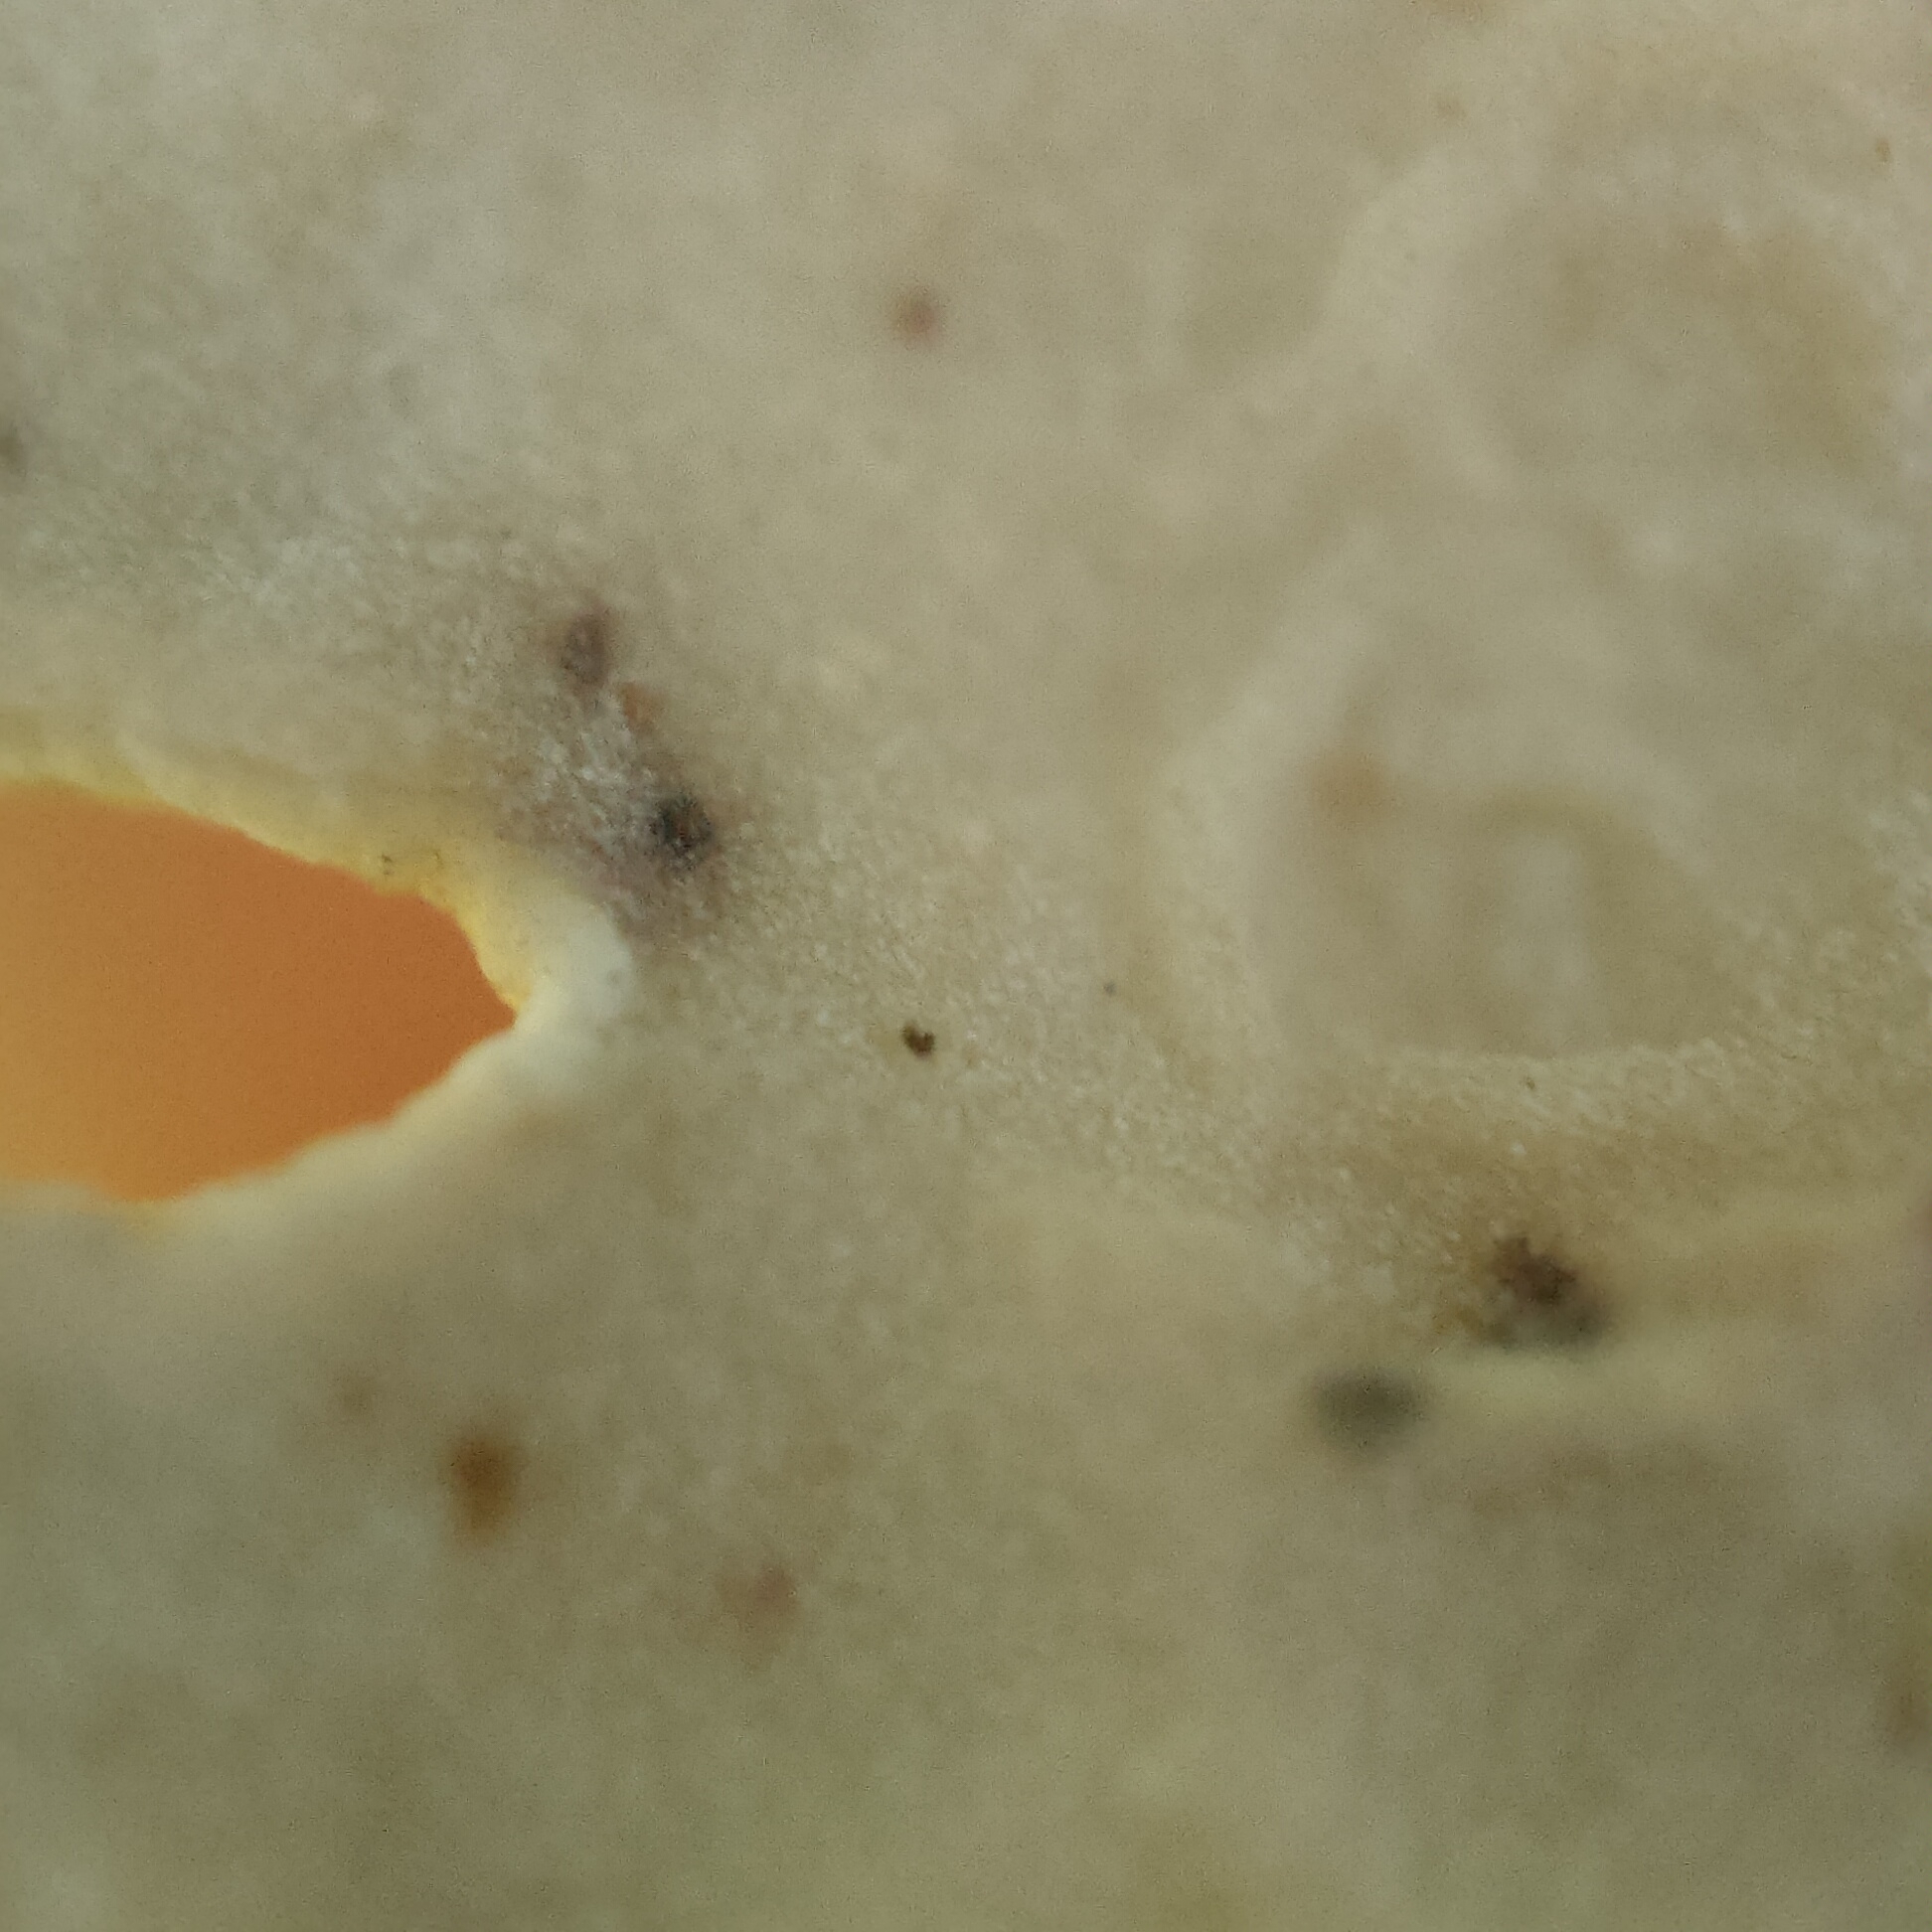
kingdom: Fungi
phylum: Ascomycota
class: Lecanoromycetes
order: Lecanorales
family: Parmeliaceae
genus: Usnea
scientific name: Usnea ciliifera
